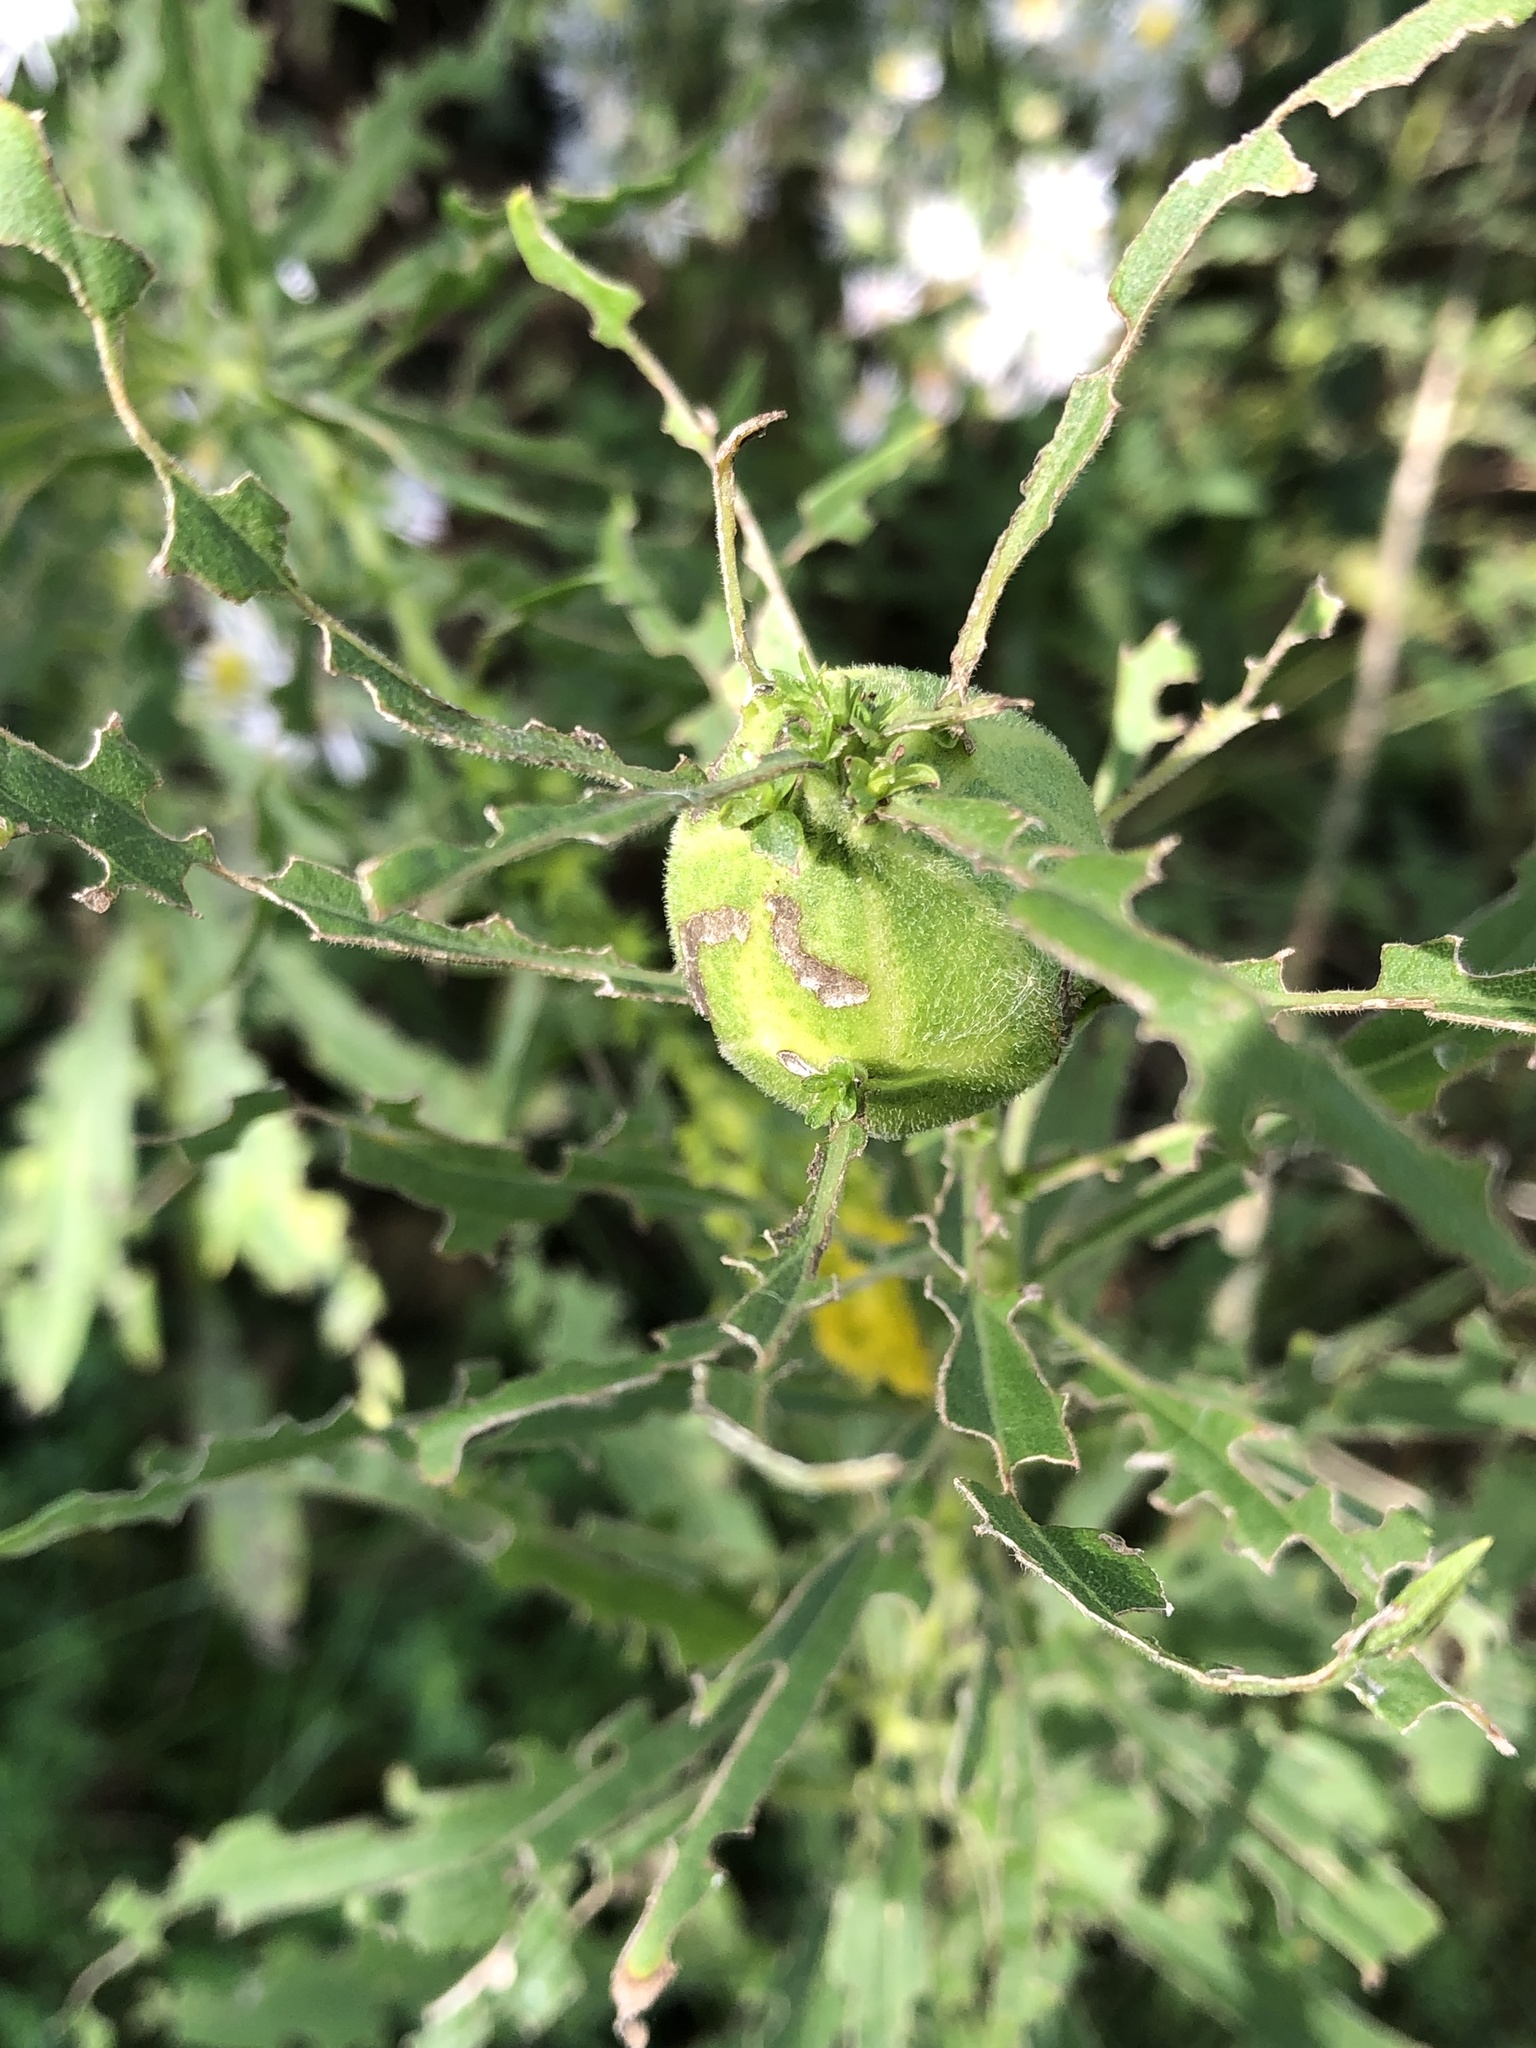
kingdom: Animalia
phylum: Arthropoda
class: Insecta
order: Diptera
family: Tephritidae
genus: Eurosta
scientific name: Eurosta solidaginis
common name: Goldenrod gall fly
